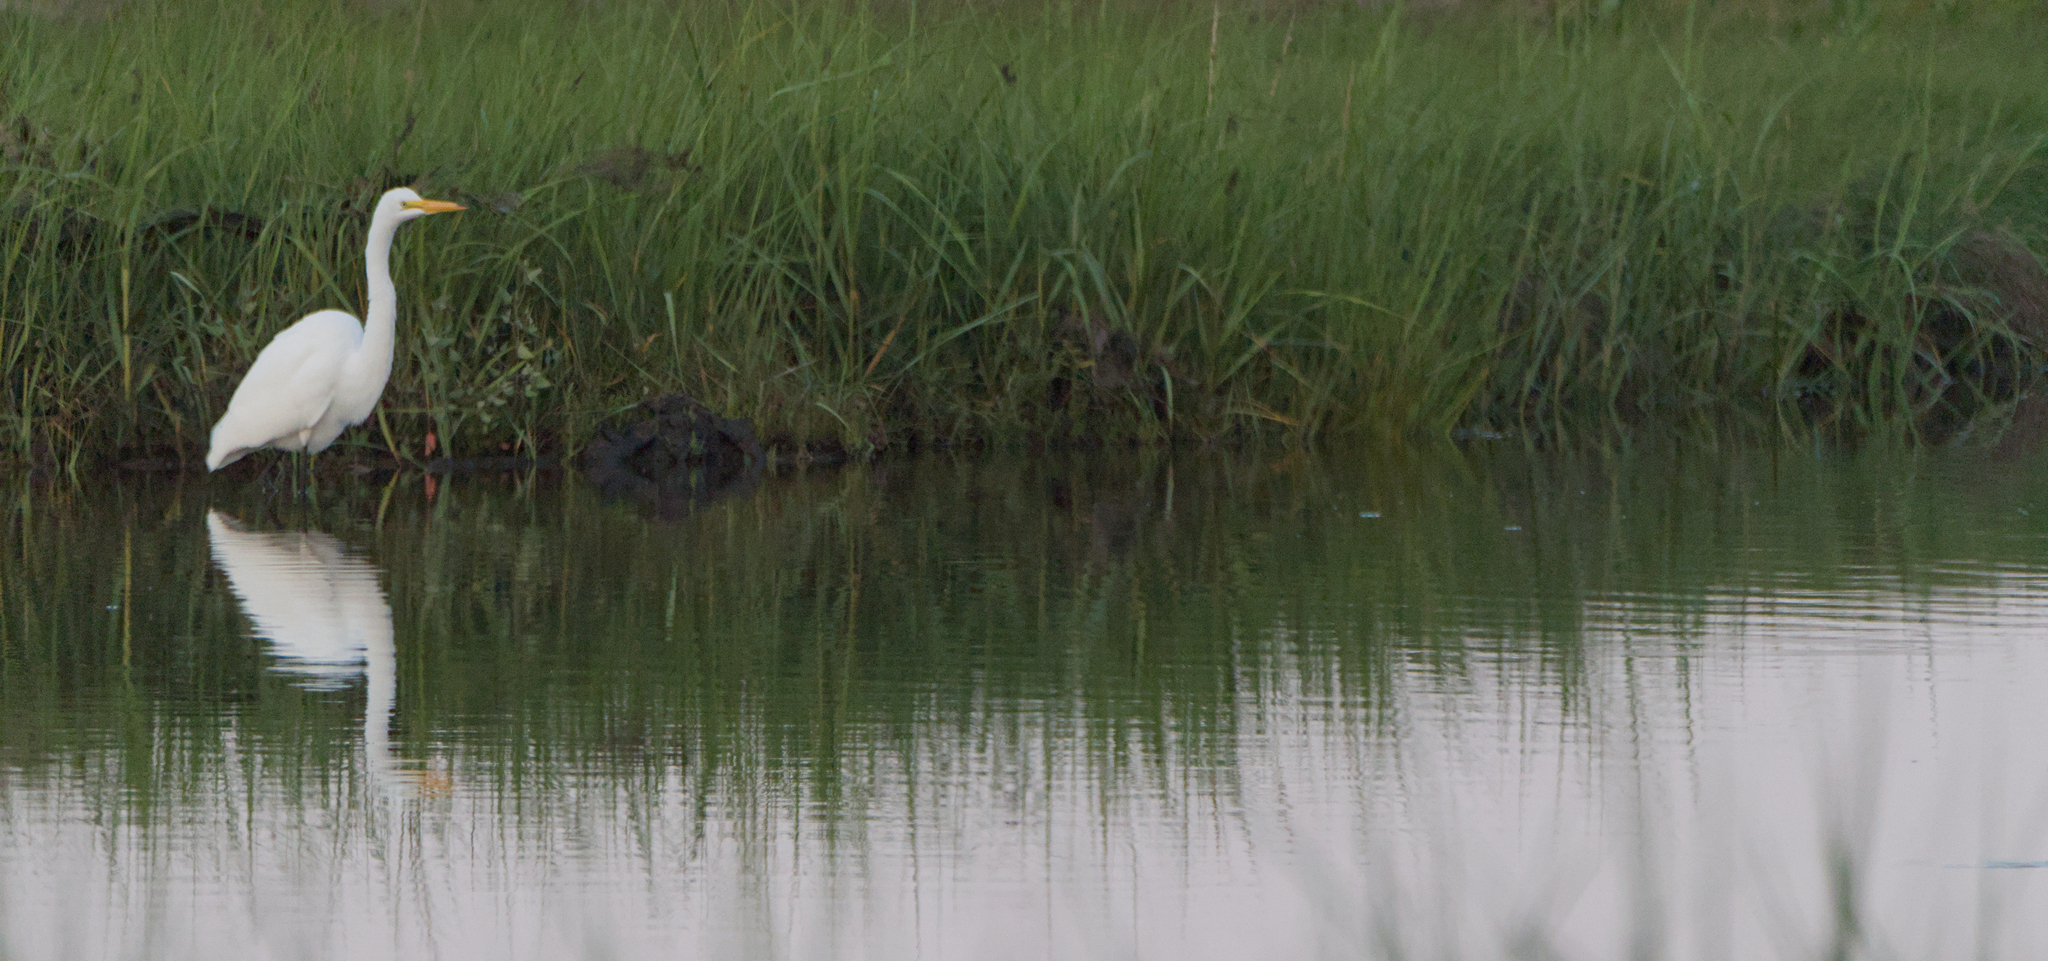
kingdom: Animalia
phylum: Chordata
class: Aves
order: Pelecaniformes
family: Ardeidae
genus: Ardea
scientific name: Ardea alba
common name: Great egret
